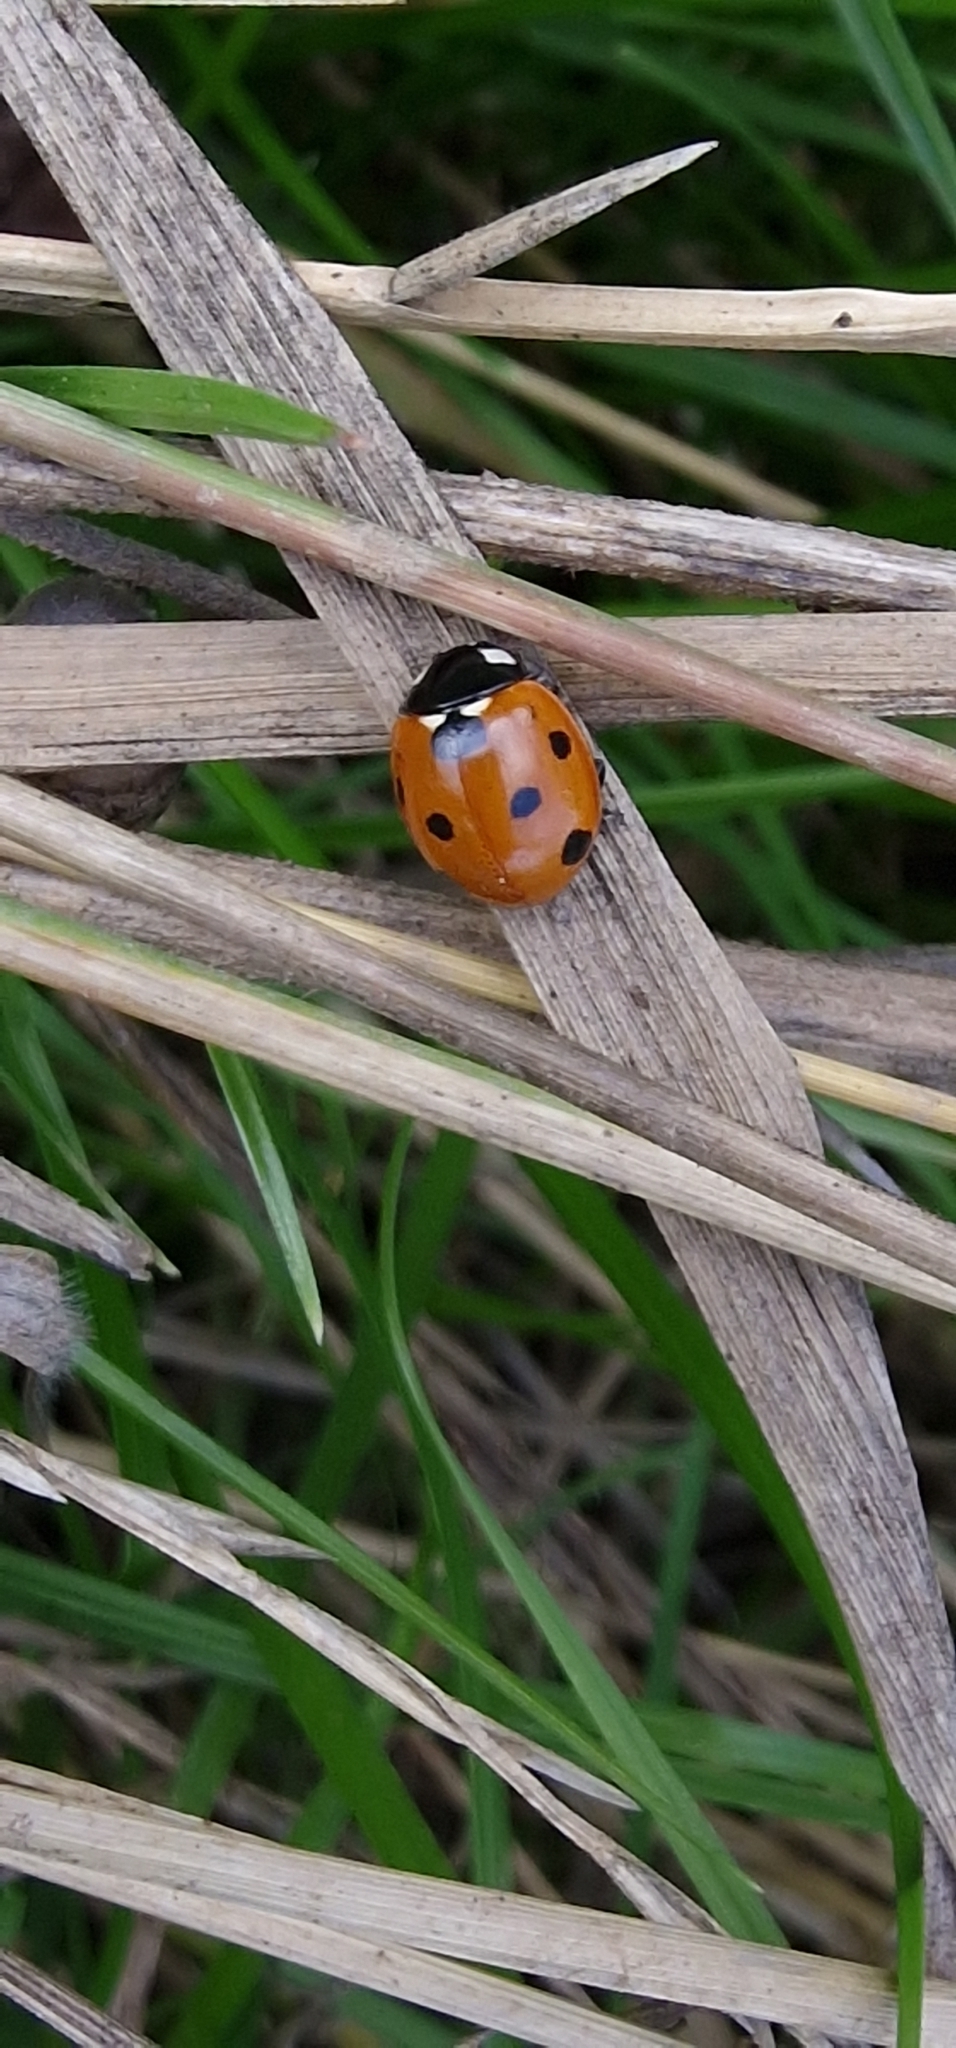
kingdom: Animalia
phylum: Arthropoda
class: Insecta
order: Coleoptera
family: Coccinellidae
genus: Coccinella
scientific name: Coccinella septempunctata
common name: Sevenspotted lady beetle
